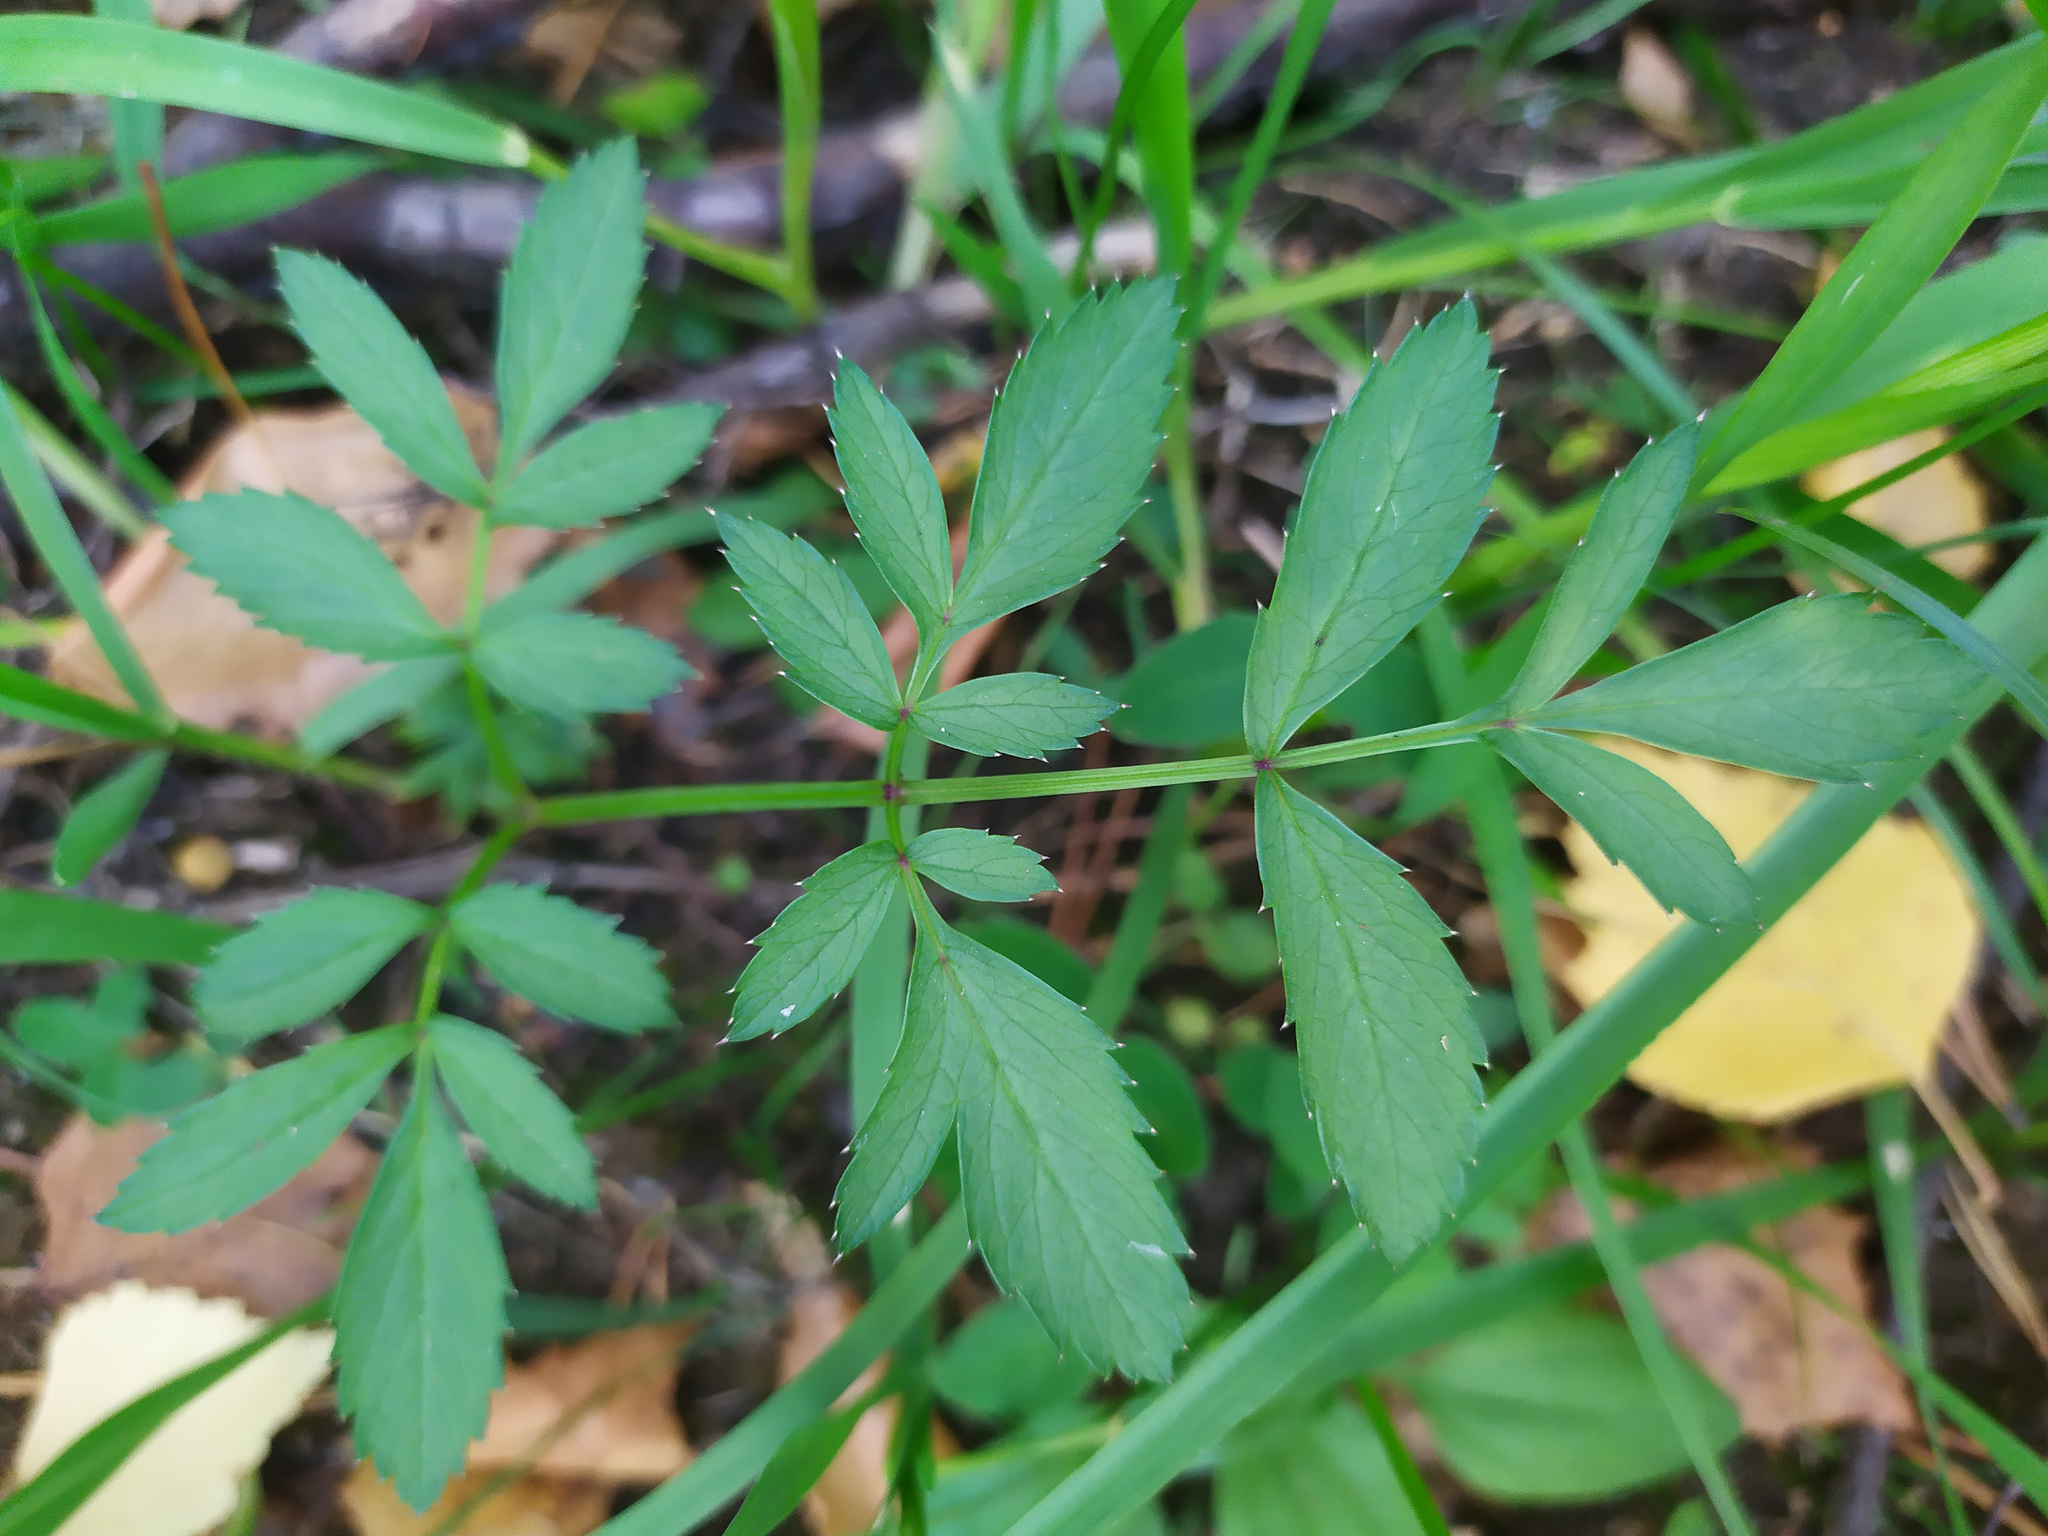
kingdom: Plantae
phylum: Tracheophyta
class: Magnoliopsida
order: Apiales
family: Apiaceae
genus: Angelica
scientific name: Angelica sylvestris
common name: Wild angelica
